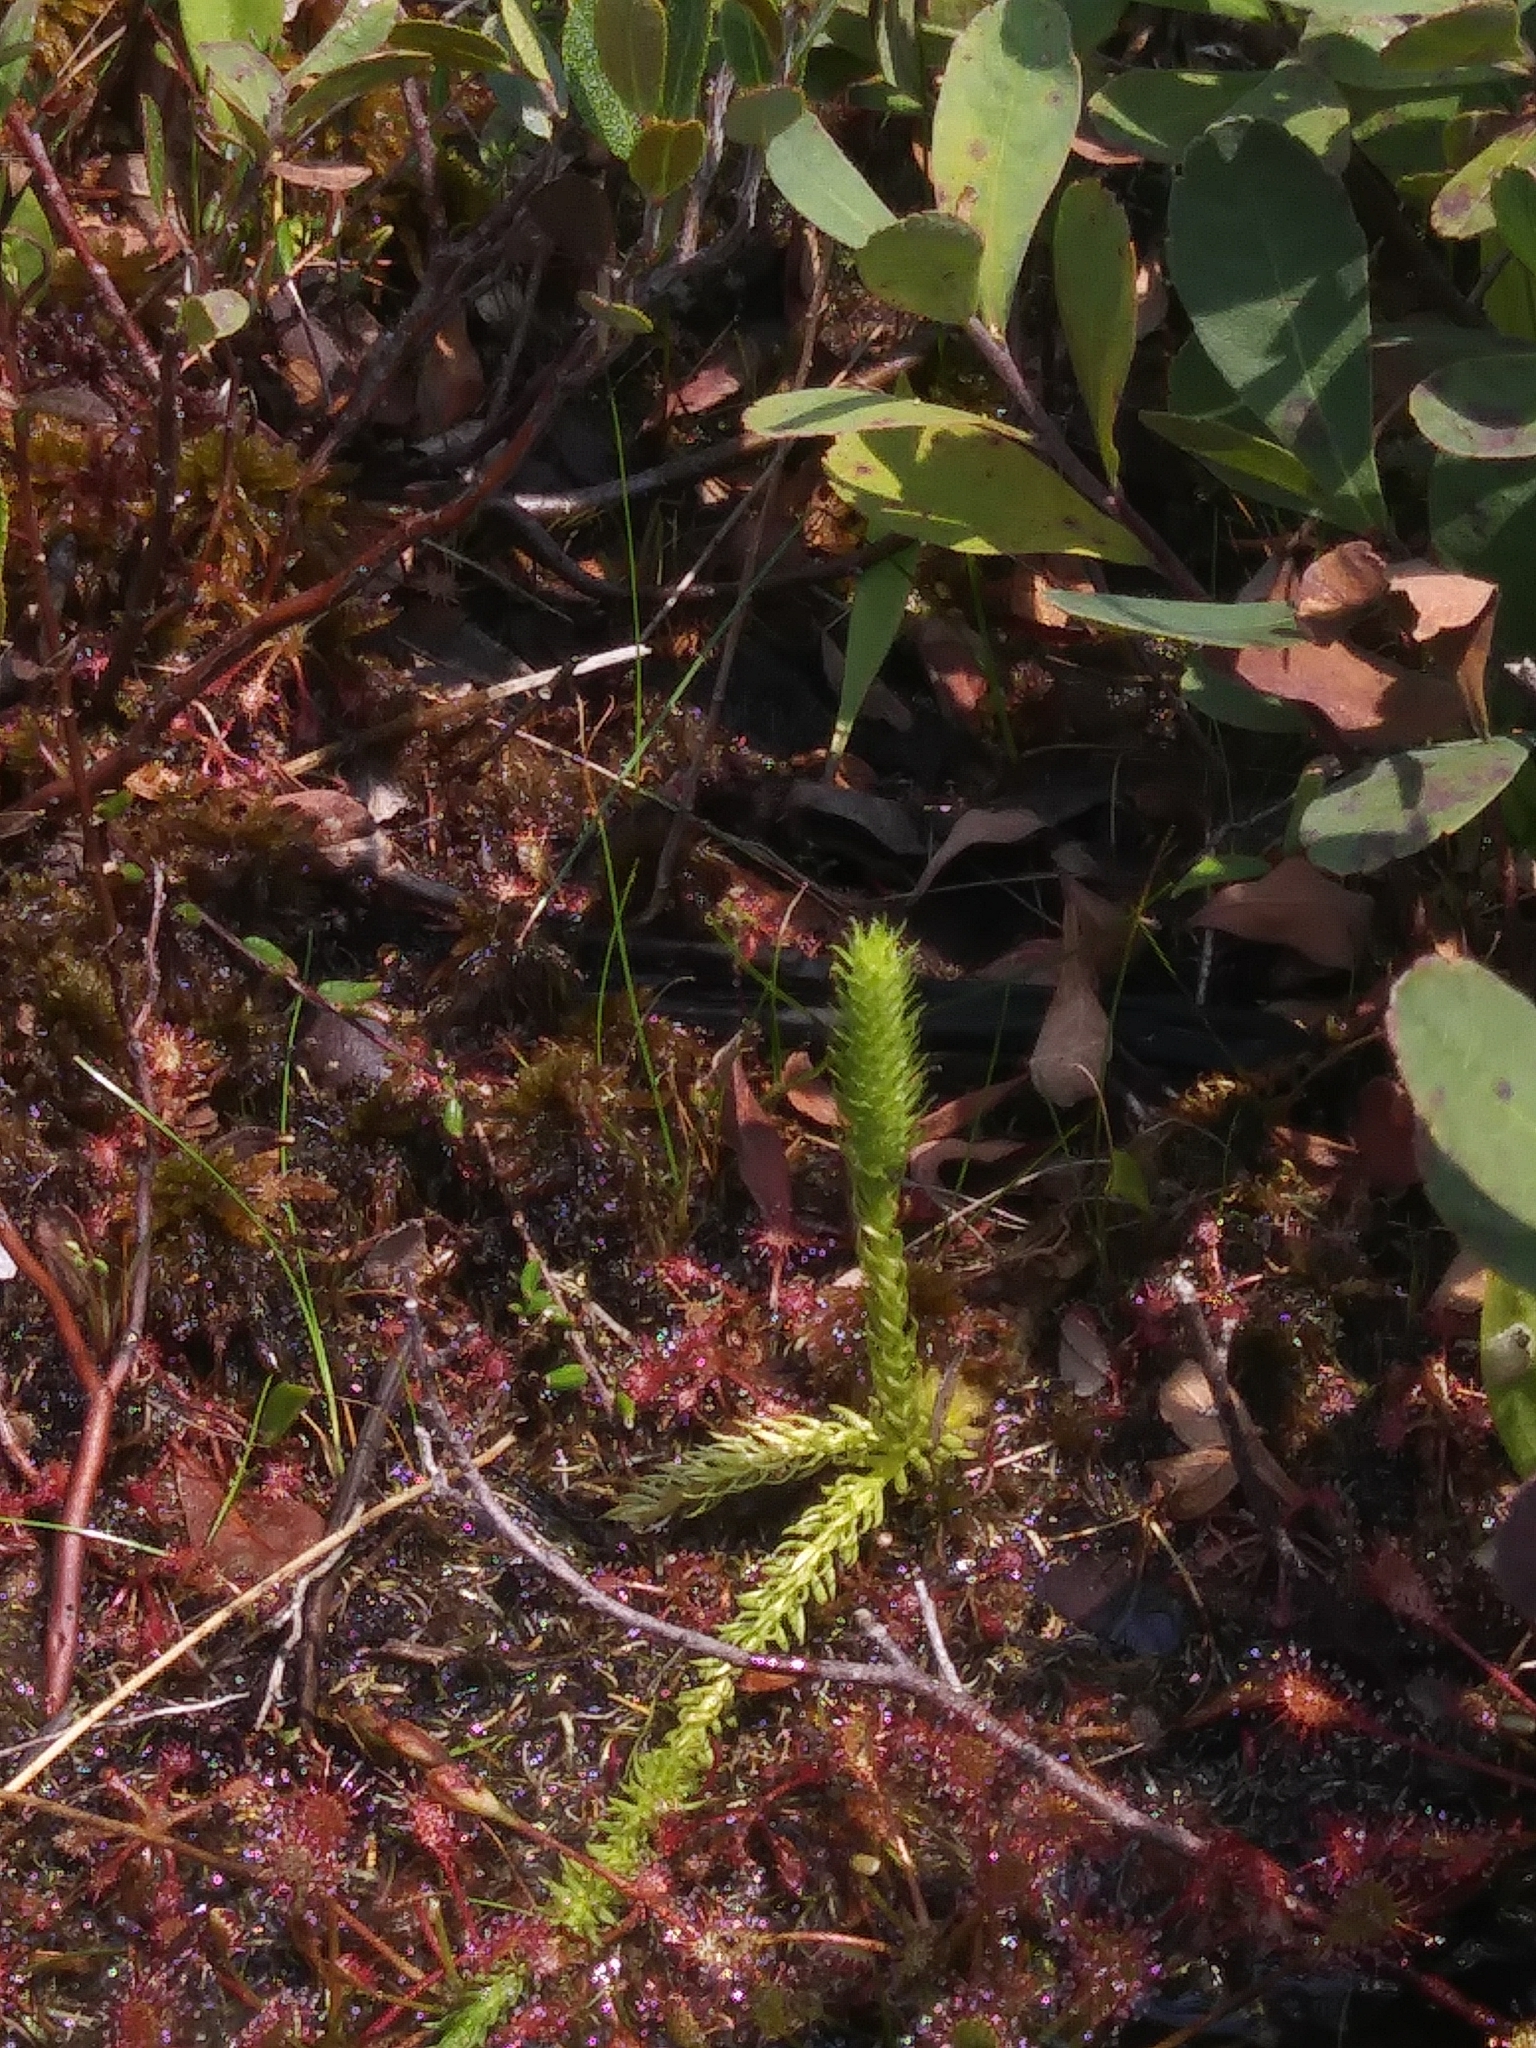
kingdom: Plantae
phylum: Tracheophyta
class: Lycopodiopsida
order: Lycopodiales
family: Lycopodiaceae
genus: Lycopodiella
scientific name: Lycopodiella inundata
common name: Marsh clubmoss
